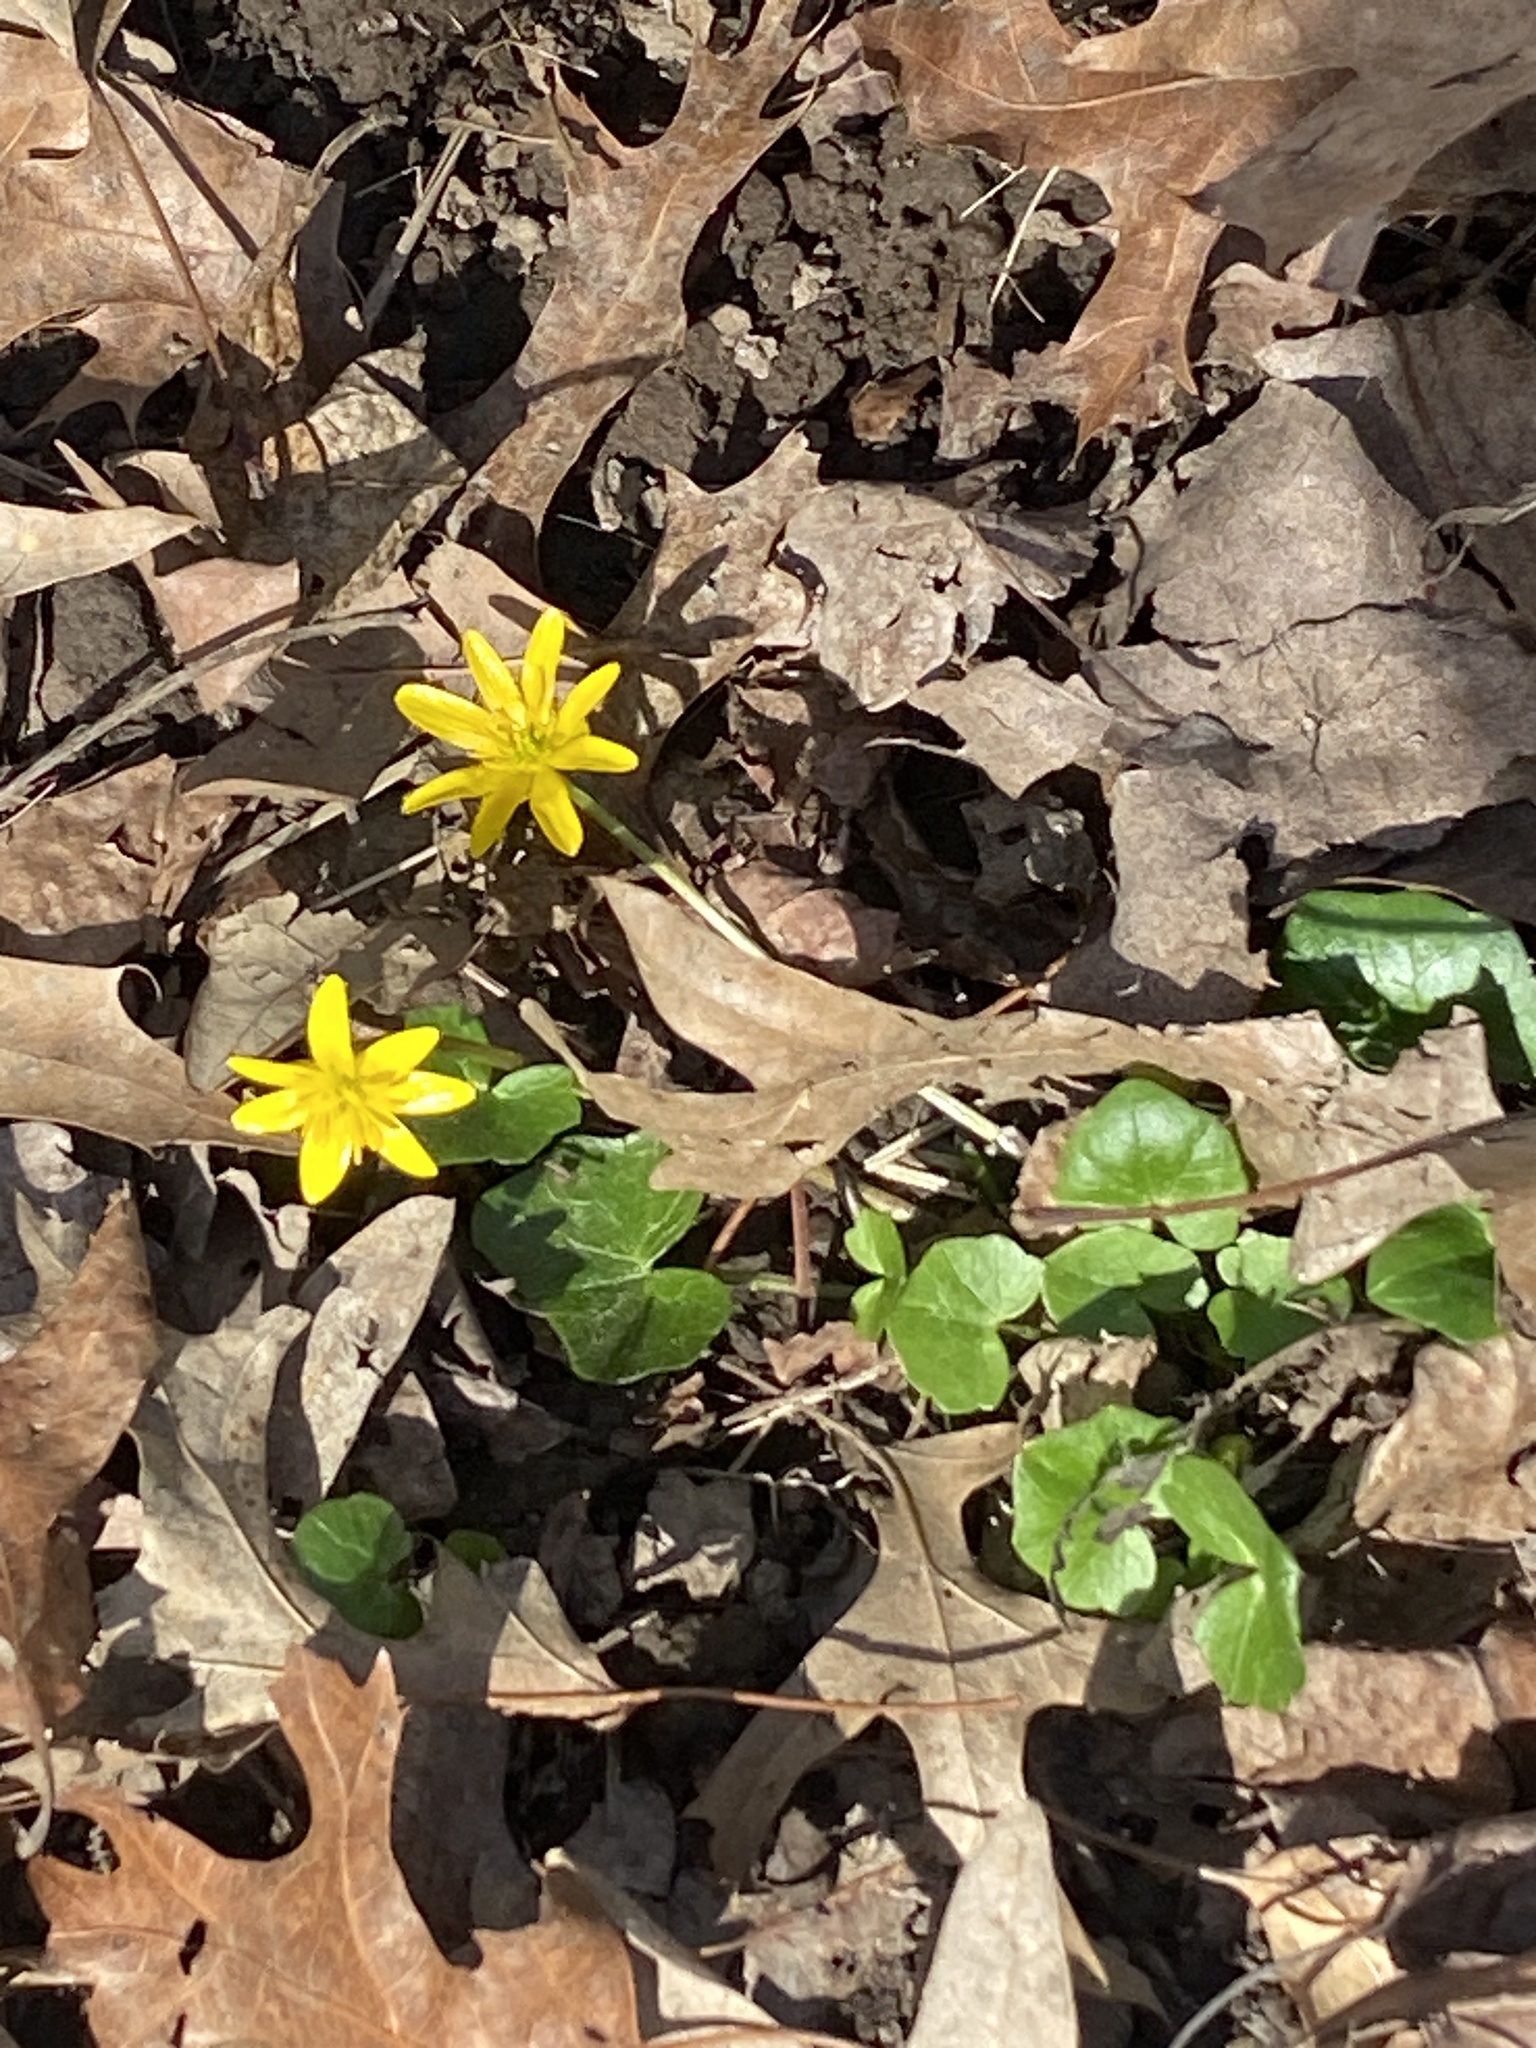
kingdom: Plantae
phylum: Tracheophyta
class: Magnoliopsida
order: Ranunculales
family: Ranunculaceae
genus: Ficaria
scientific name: Ficaria verna
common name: Lesser celandine
